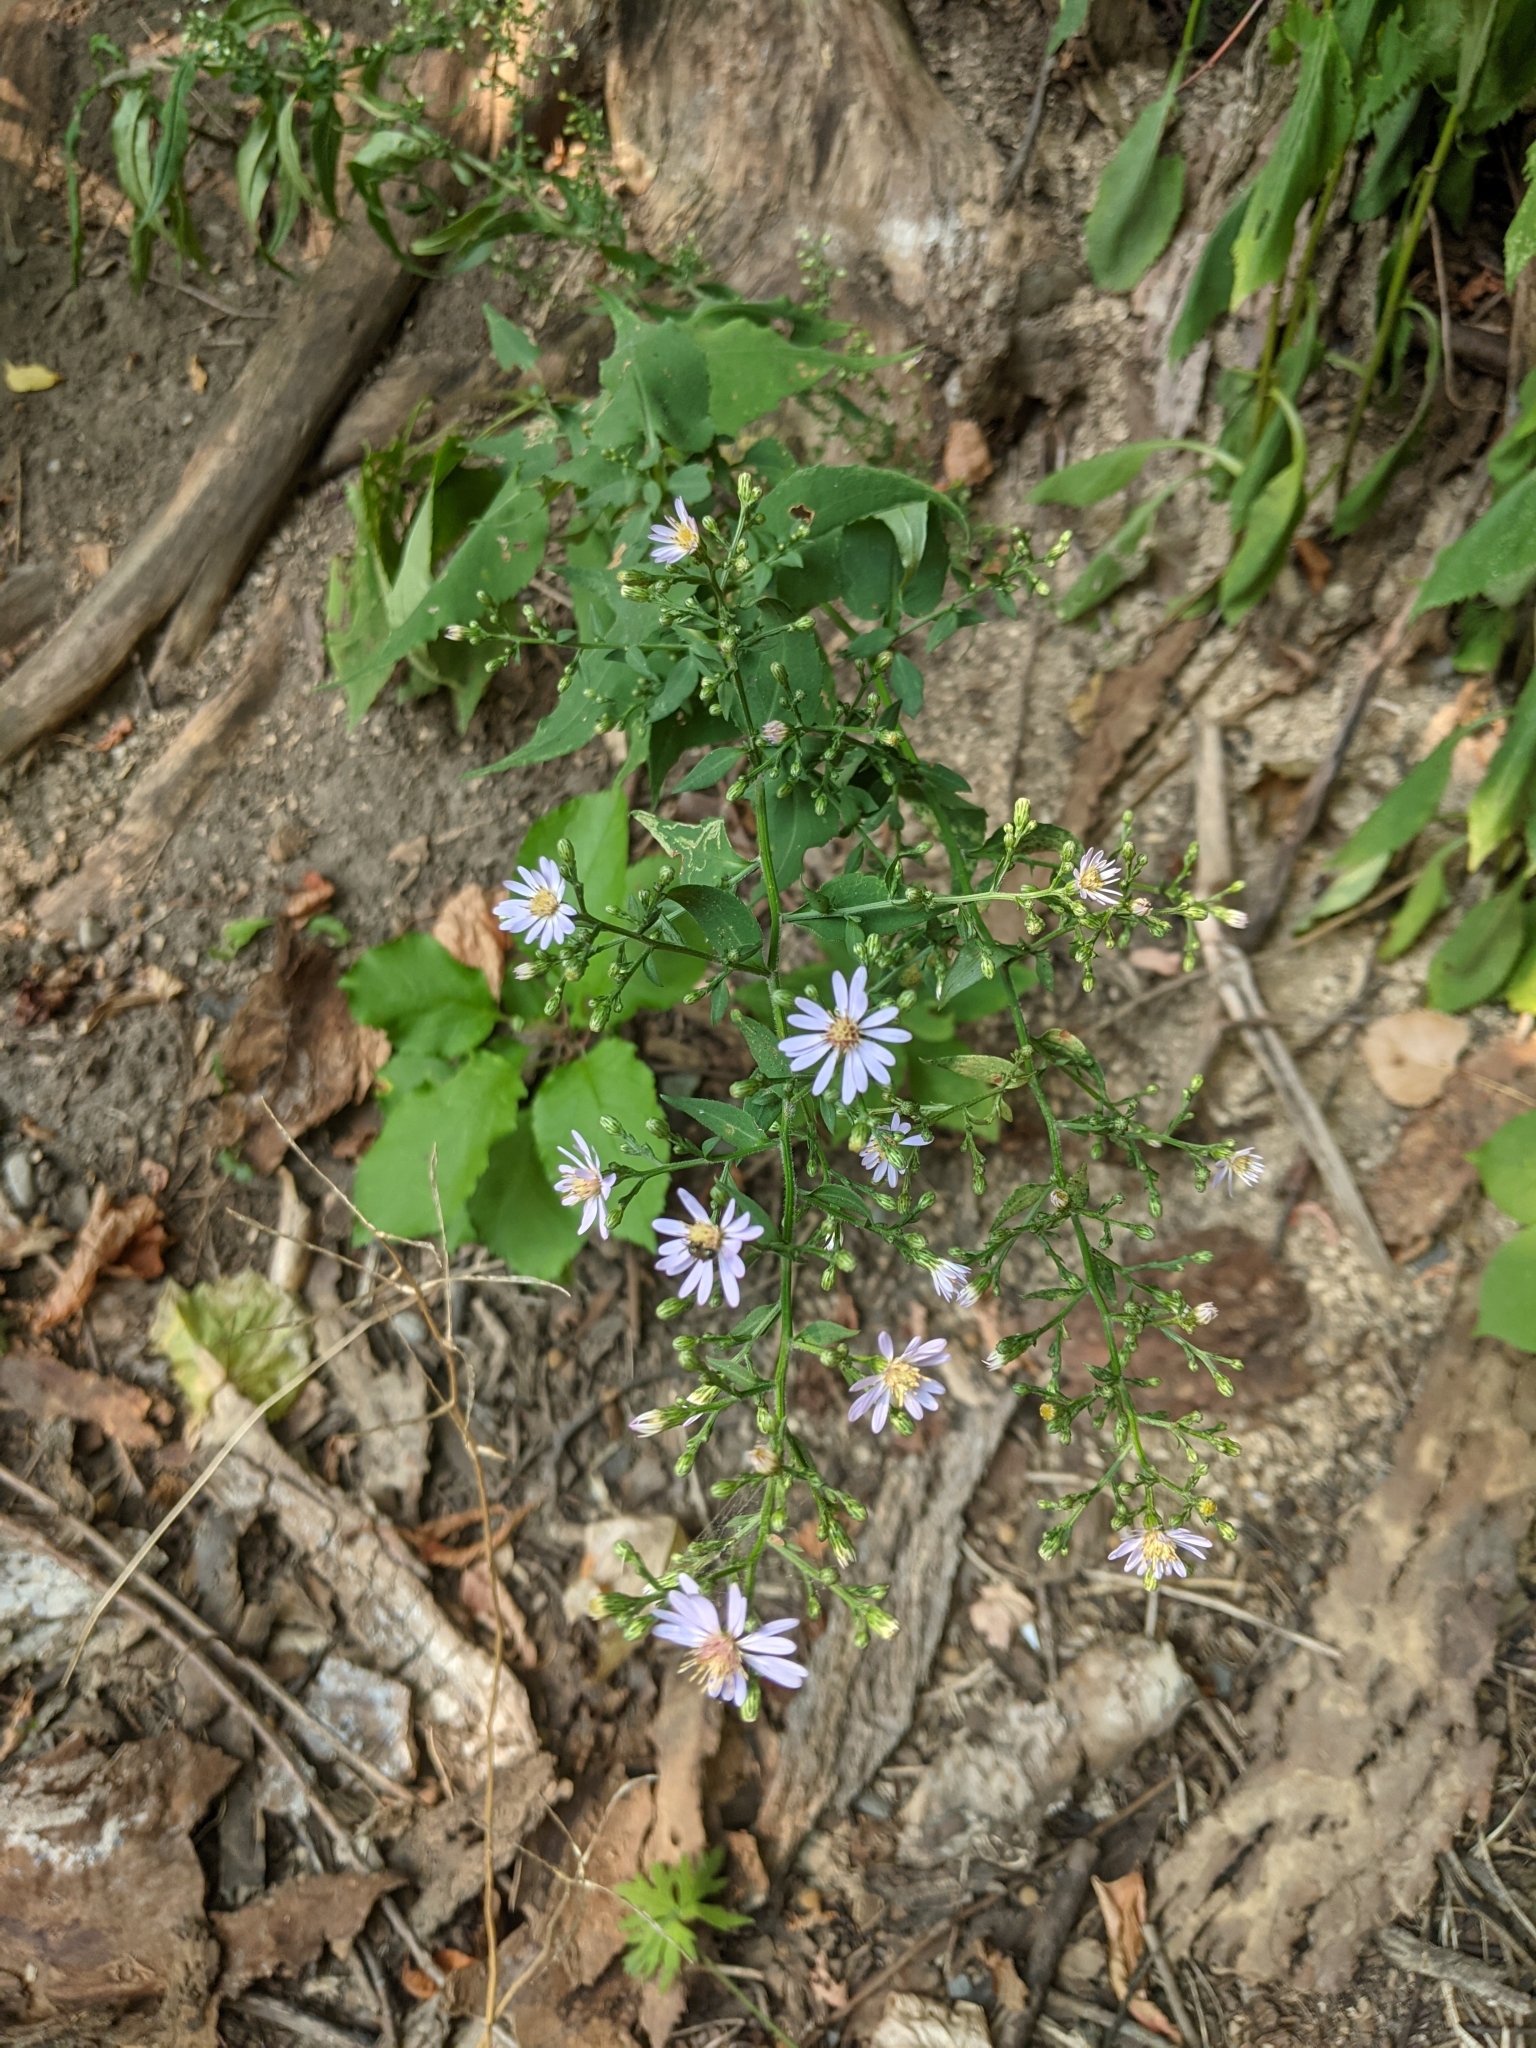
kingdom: Plantae
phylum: Tracheophyta
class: Magnoliopsida
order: Asterales
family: Asteraceae
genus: Symphyotrichum
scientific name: Symphyotrichum cordifolium
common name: Beeweed
